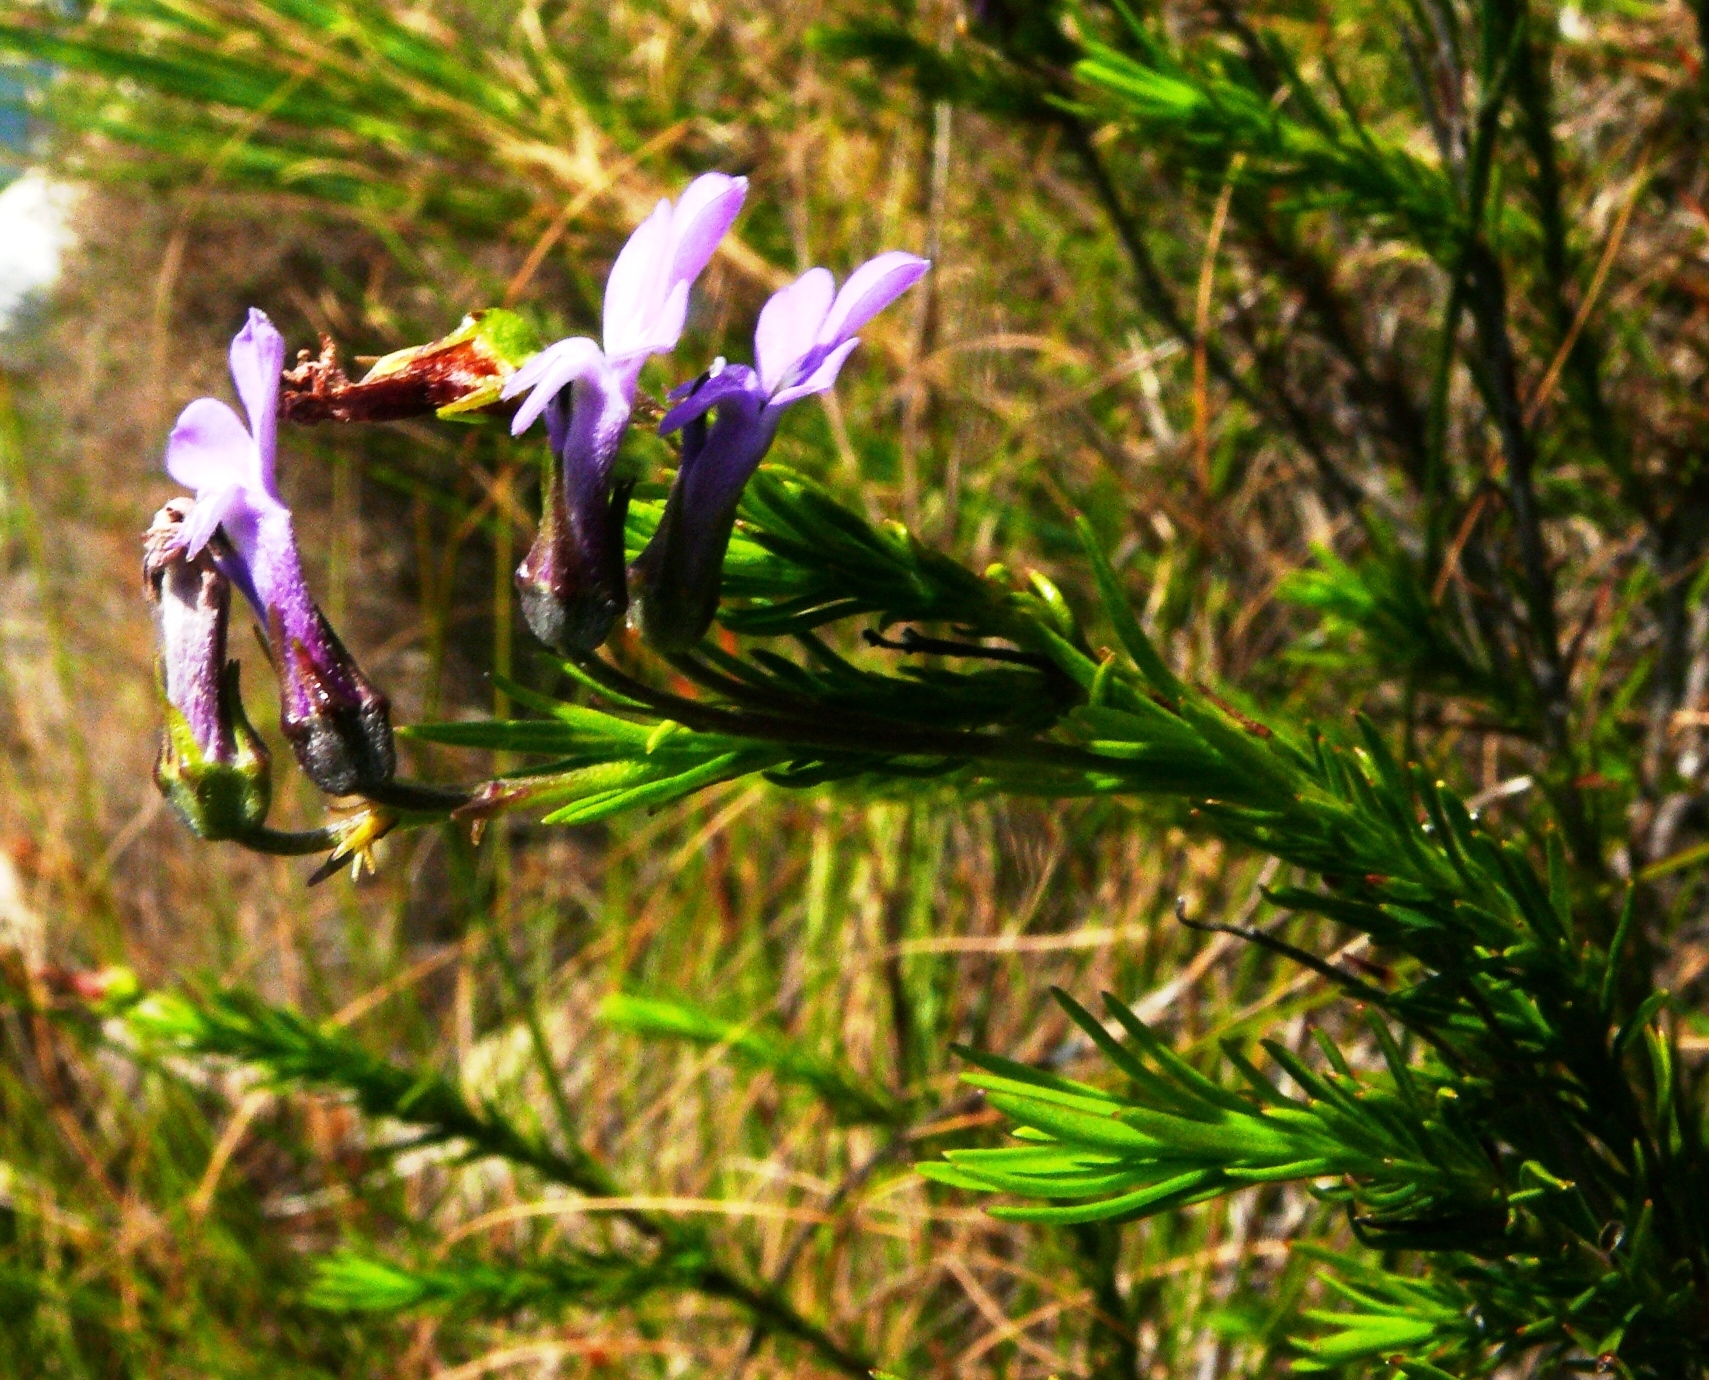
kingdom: Plantae
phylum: Tracheophyta
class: Magnoliopsida
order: Asterales
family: Campanulaceae
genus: Lobelia
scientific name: Lobelia pinifolia
